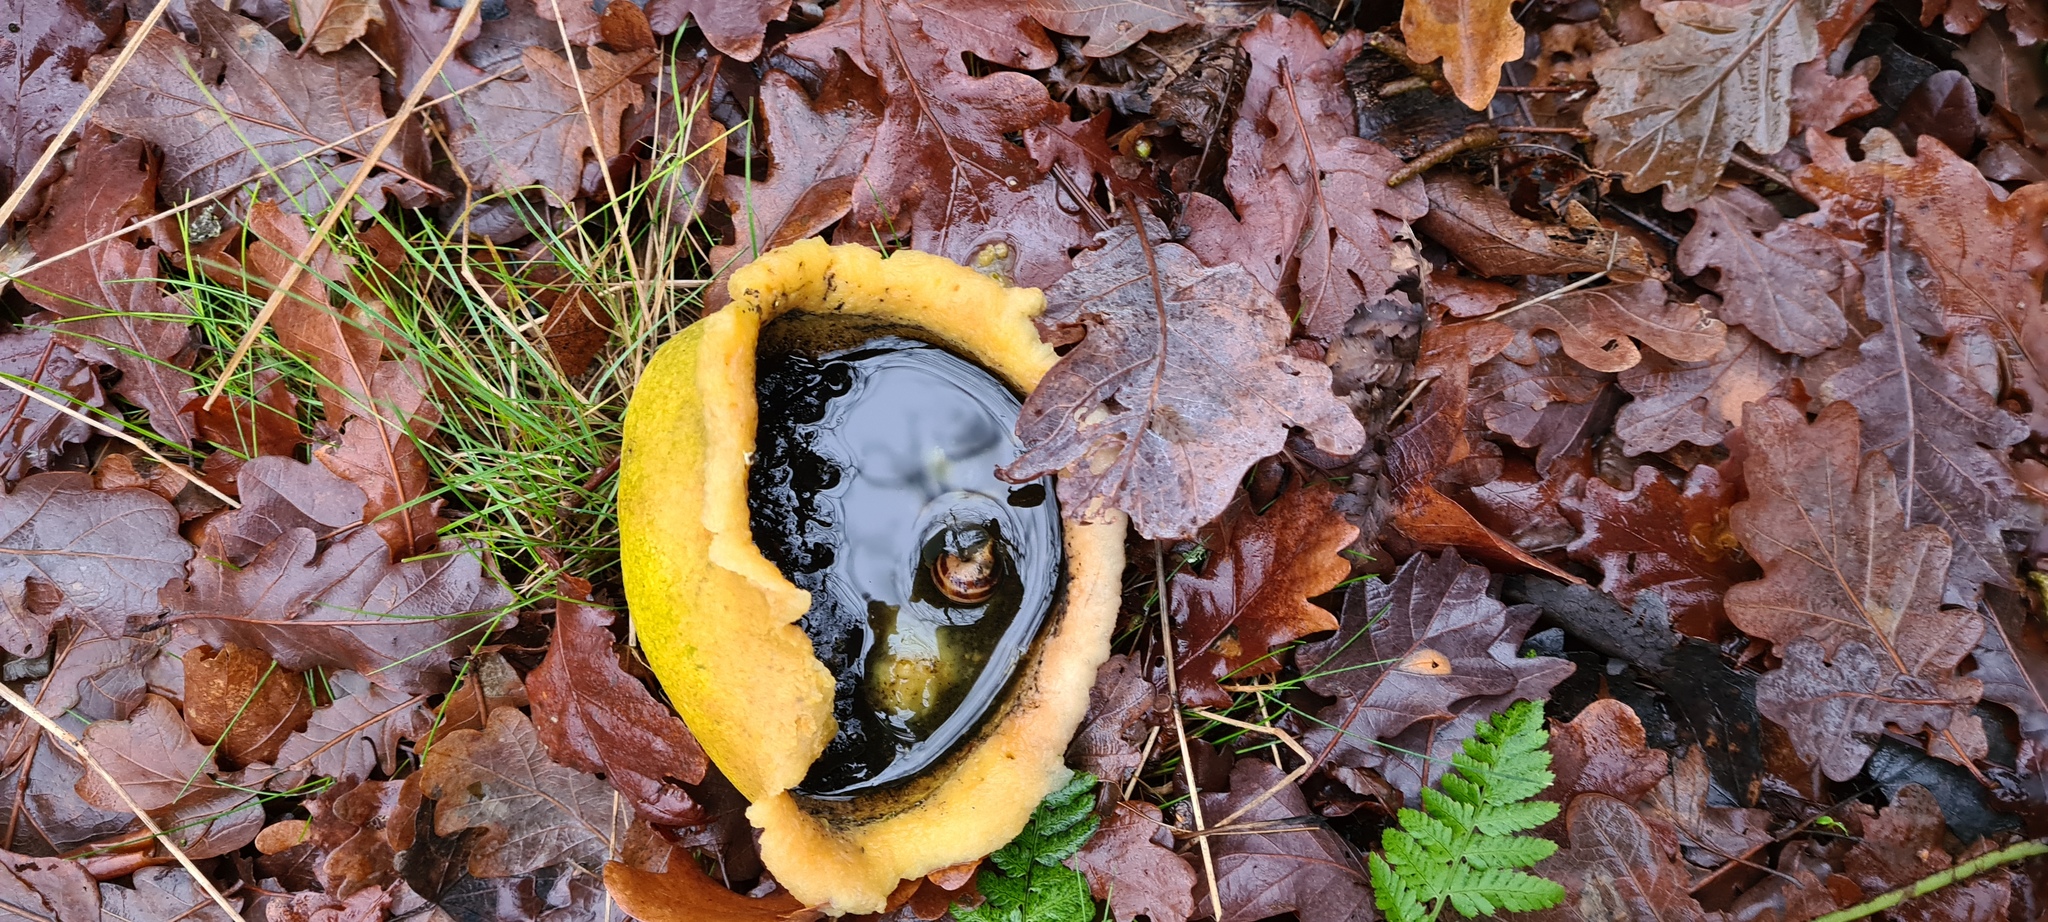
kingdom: Fungi
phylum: Basidiomycota
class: Agaricomycetes
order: Boletales
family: Sclerodermataceae
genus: Scleroderma
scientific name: Scleroderma citrinum
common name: Common earthball
